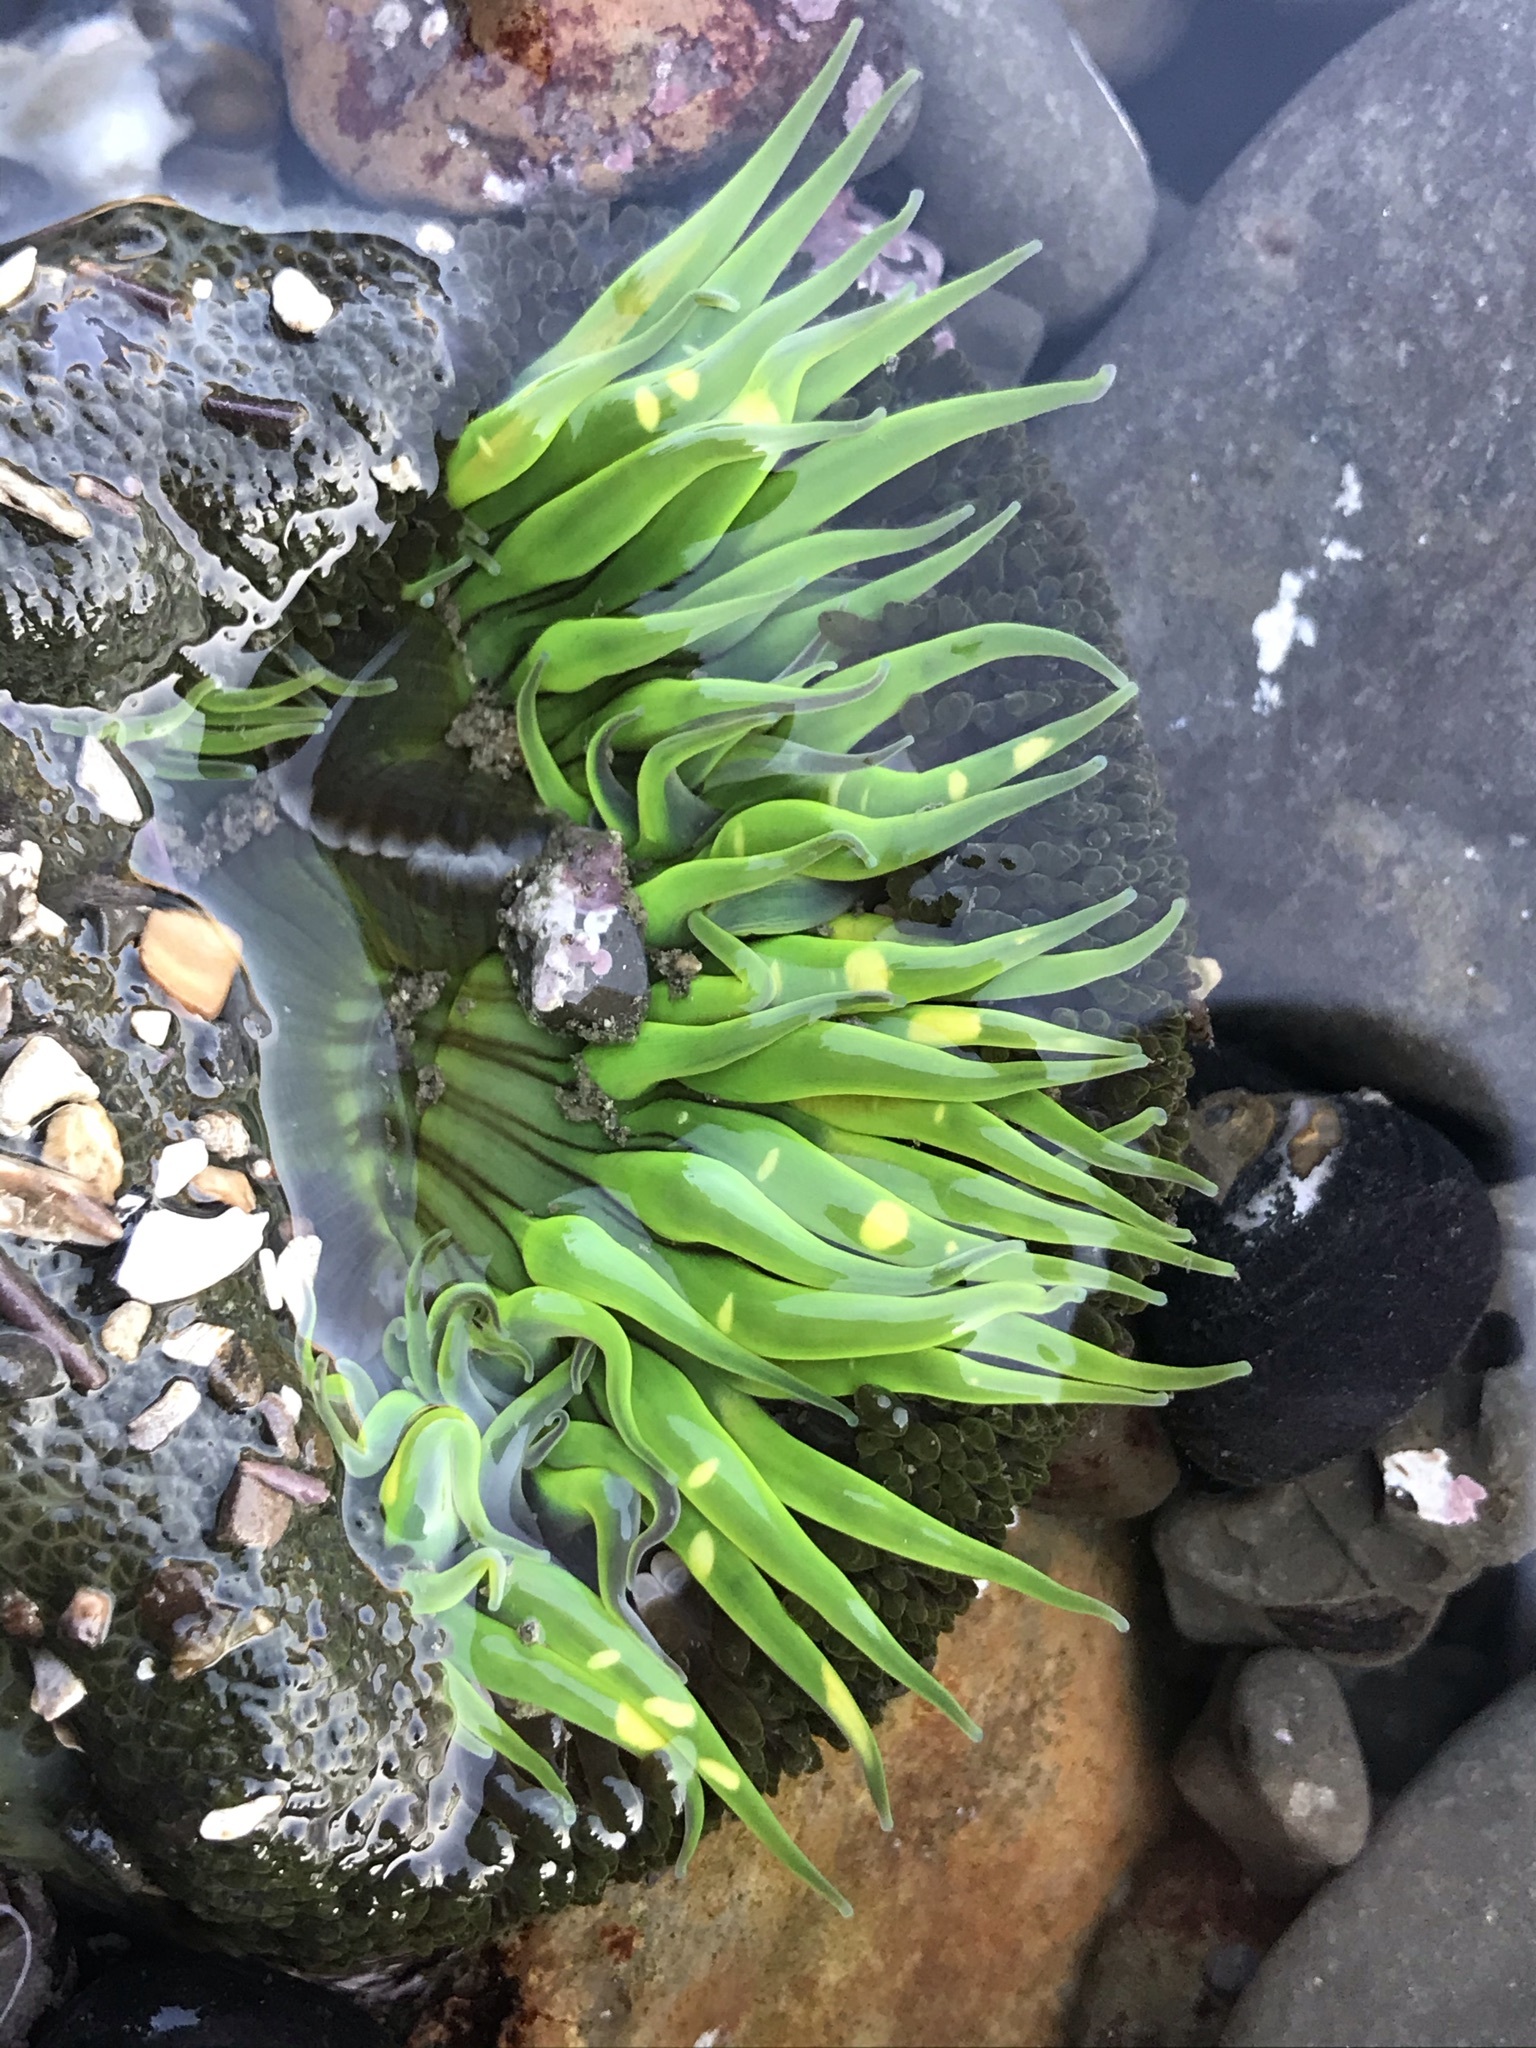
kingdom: Animalia
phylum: Cnidaria
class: Anthozoa
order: Actiniaria
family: Actiniidae
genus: Anthopleura
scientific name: Anthopleura sola
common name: Sun anemone
